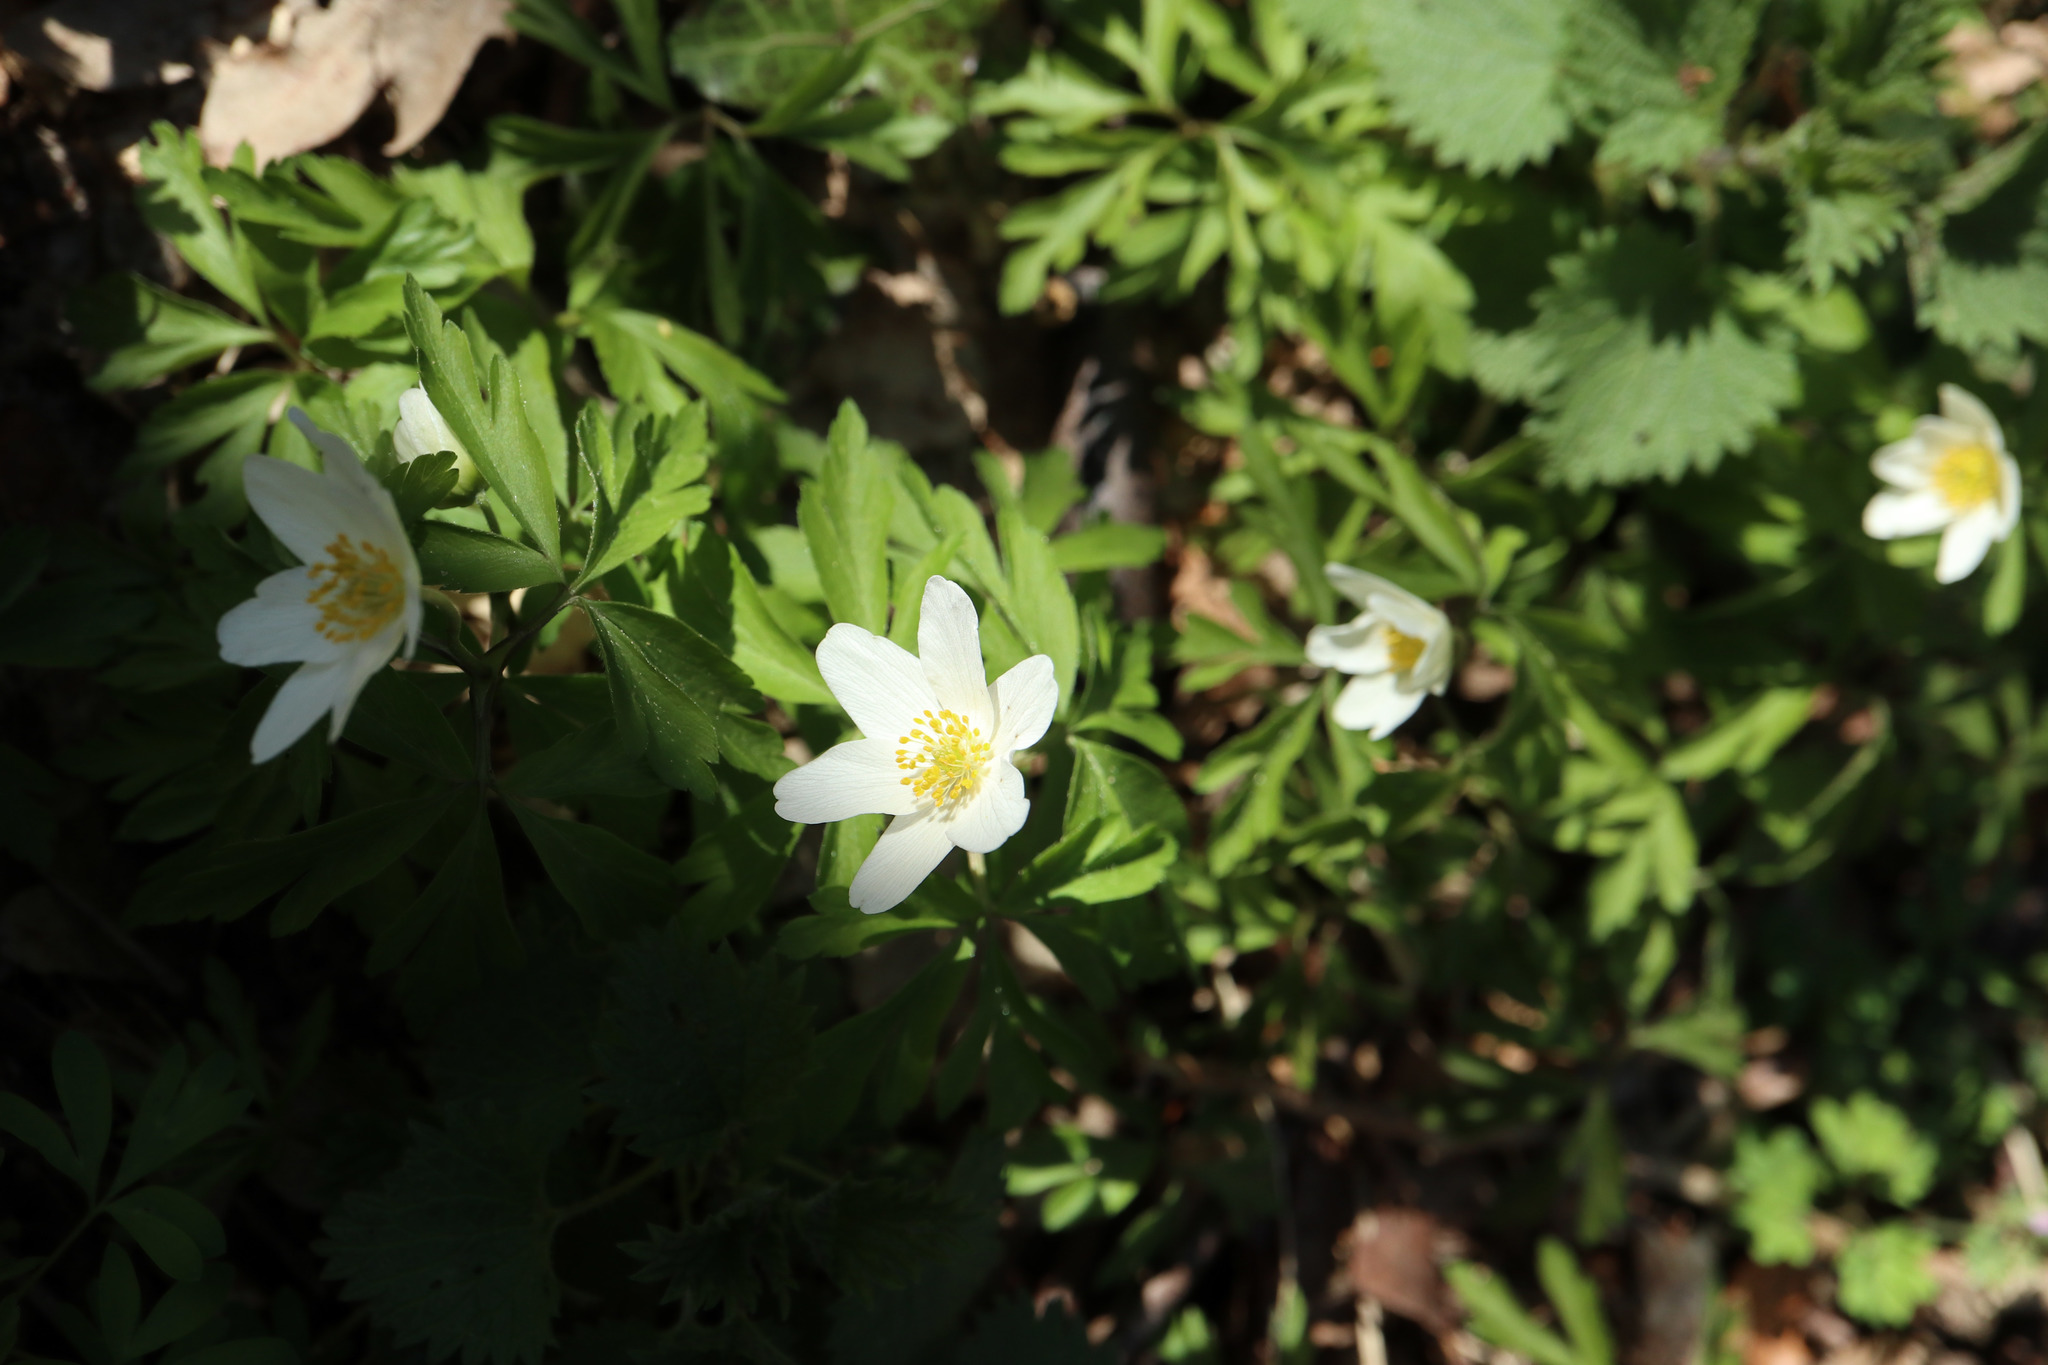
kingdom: Plantae
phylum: Tracheophyta
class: Magnoliopsida
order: Ranunculales
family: Ranunculaceae
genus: Anemone
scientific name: Anemone nemorosa
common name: Wood anemone
